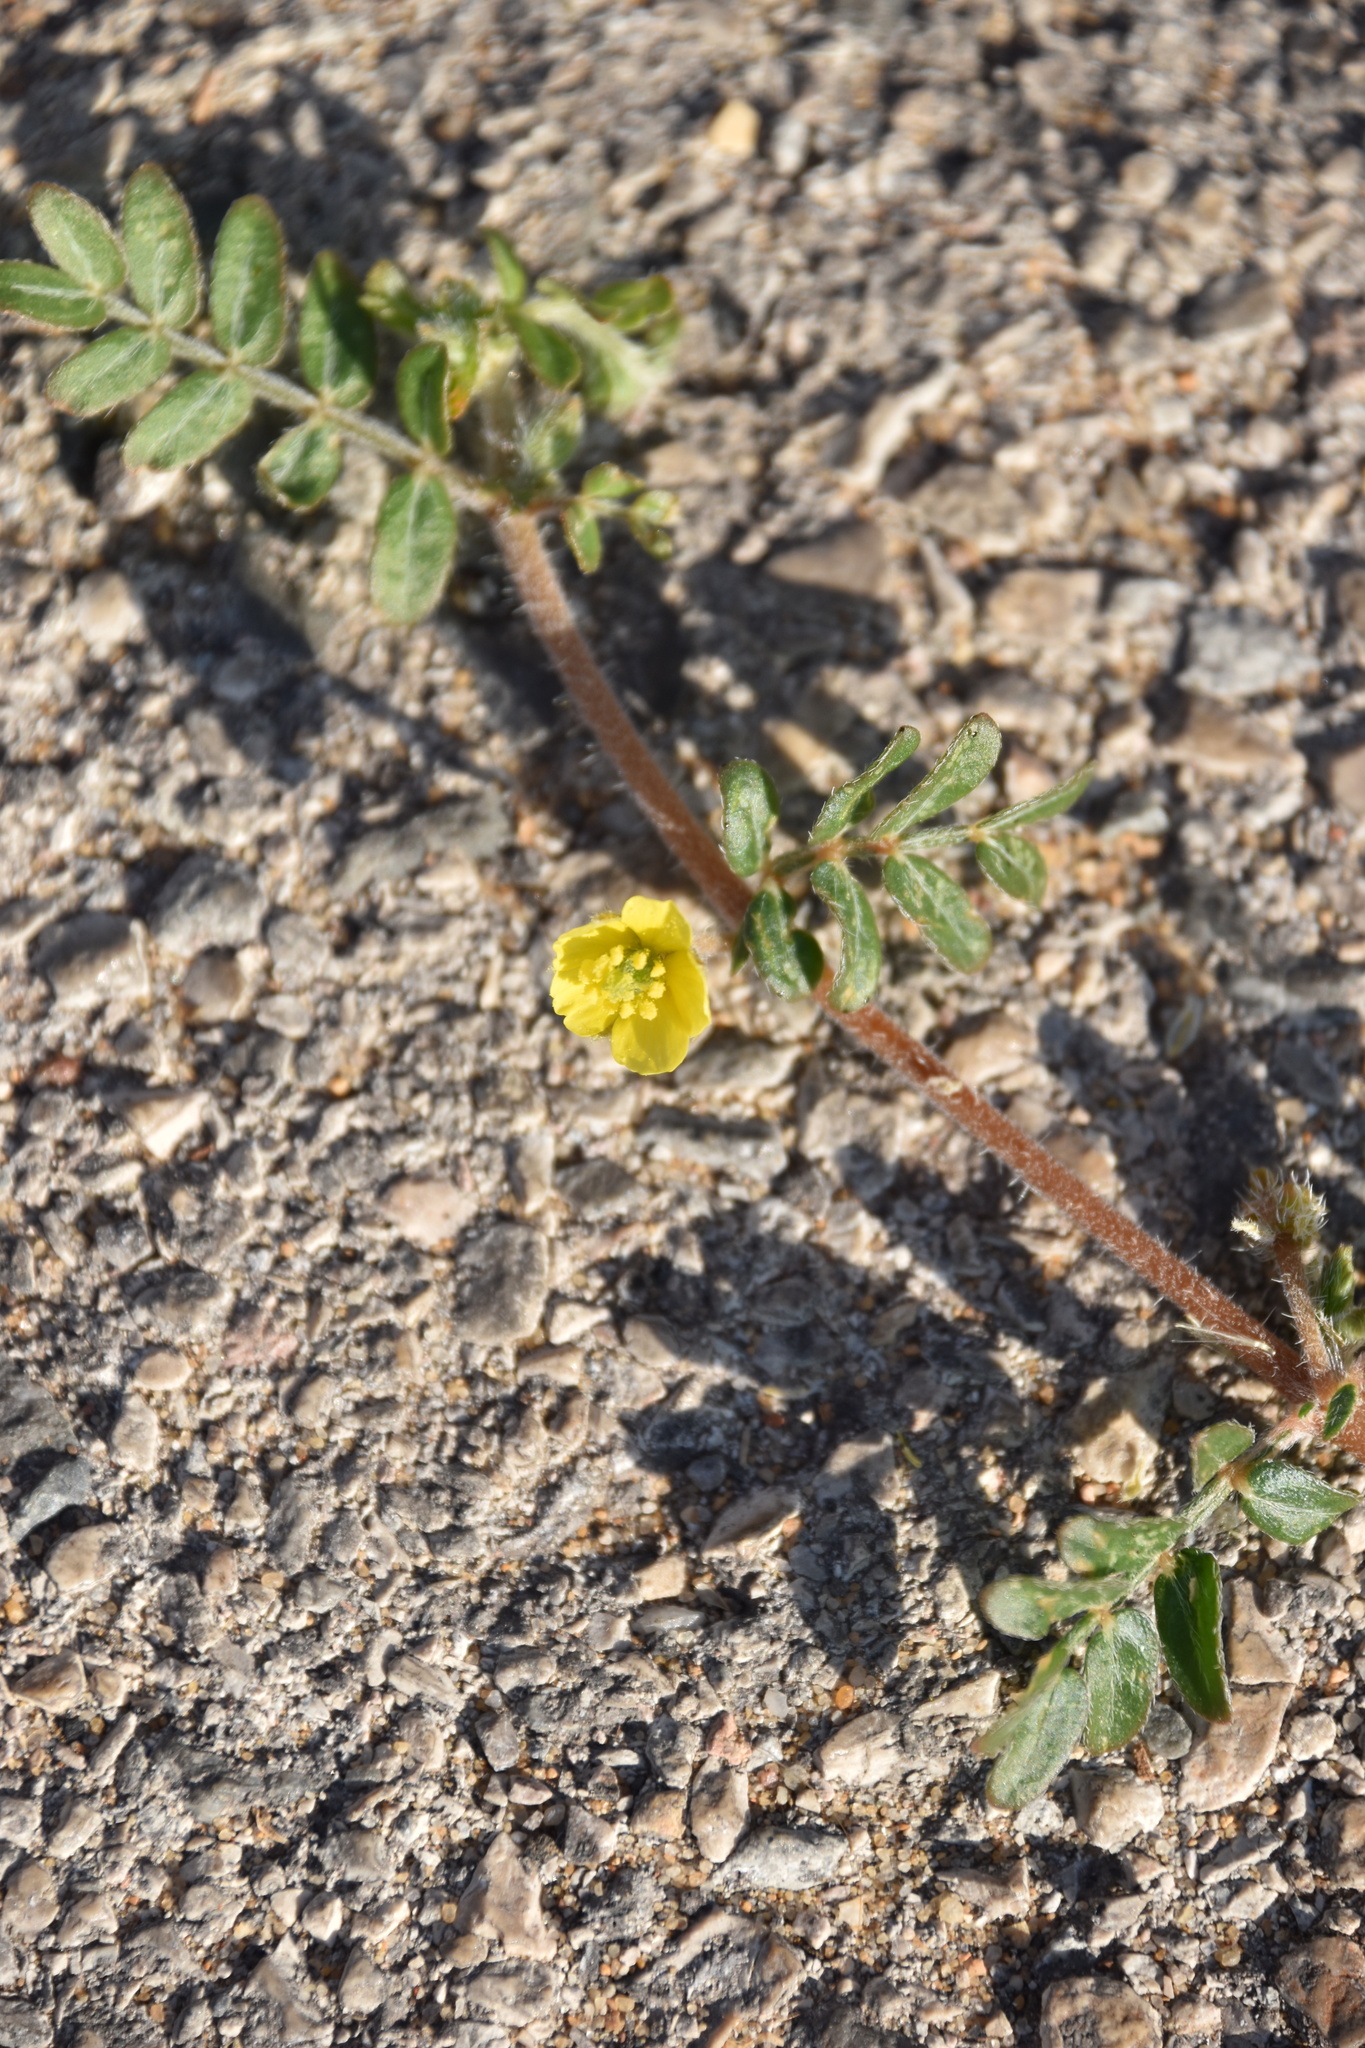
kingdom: Plantae
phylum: Tracheophyta
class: Magnoliopsida
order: Zygophyllales
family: Zygophyllaceae
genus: Tribulus
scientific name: Tribulus terrestris
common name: Puncturevine
